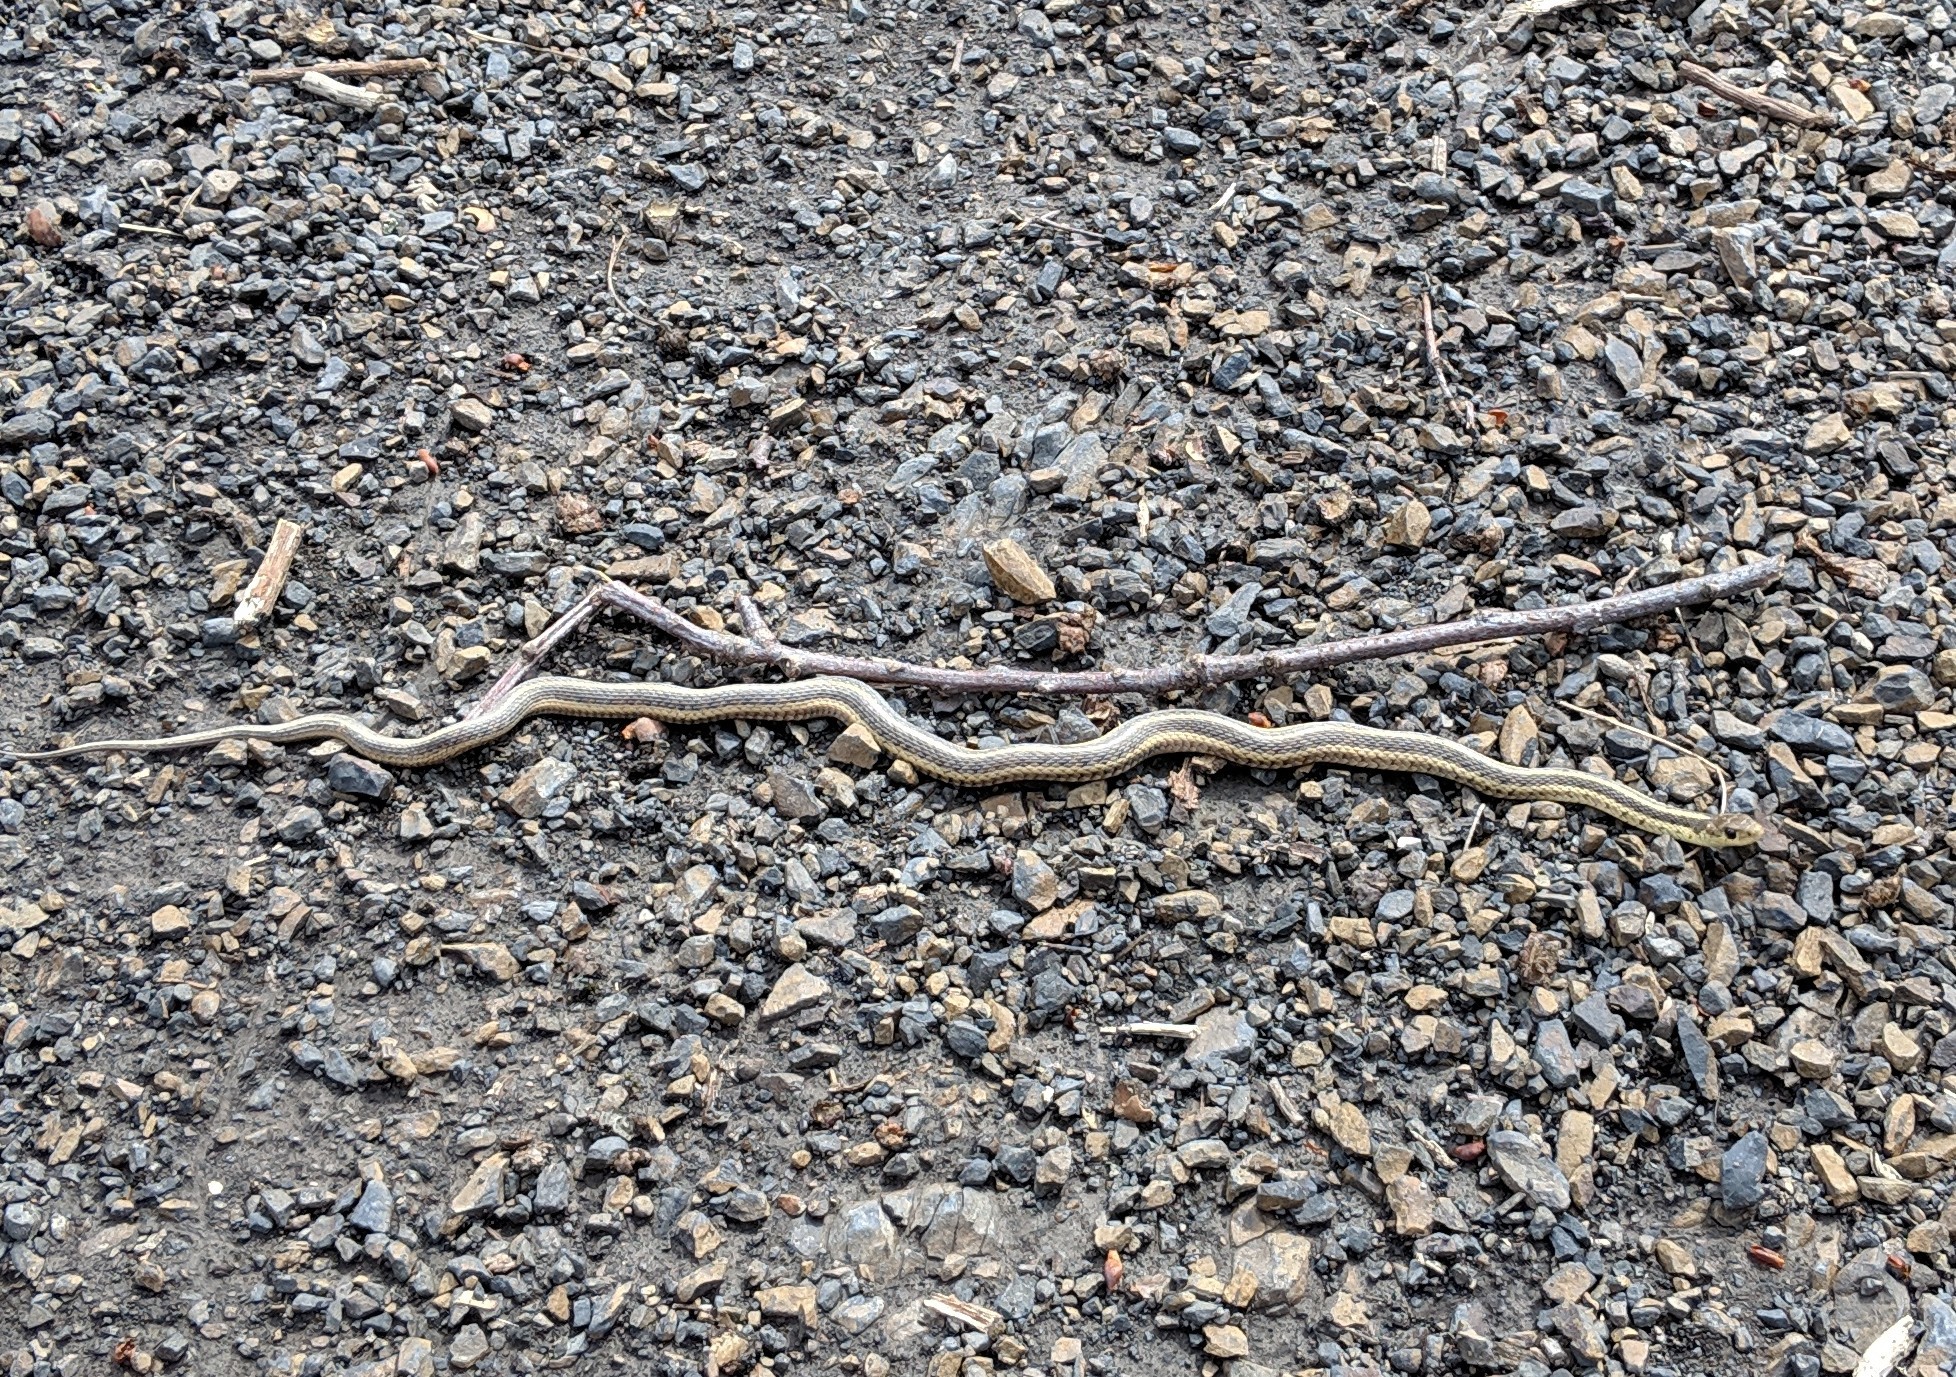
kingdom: Animalia
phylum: Chordata
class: Squamata
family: Colubridae
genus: Thamnophis
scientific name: Thamnophis sirtalis
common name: Common garter snake
